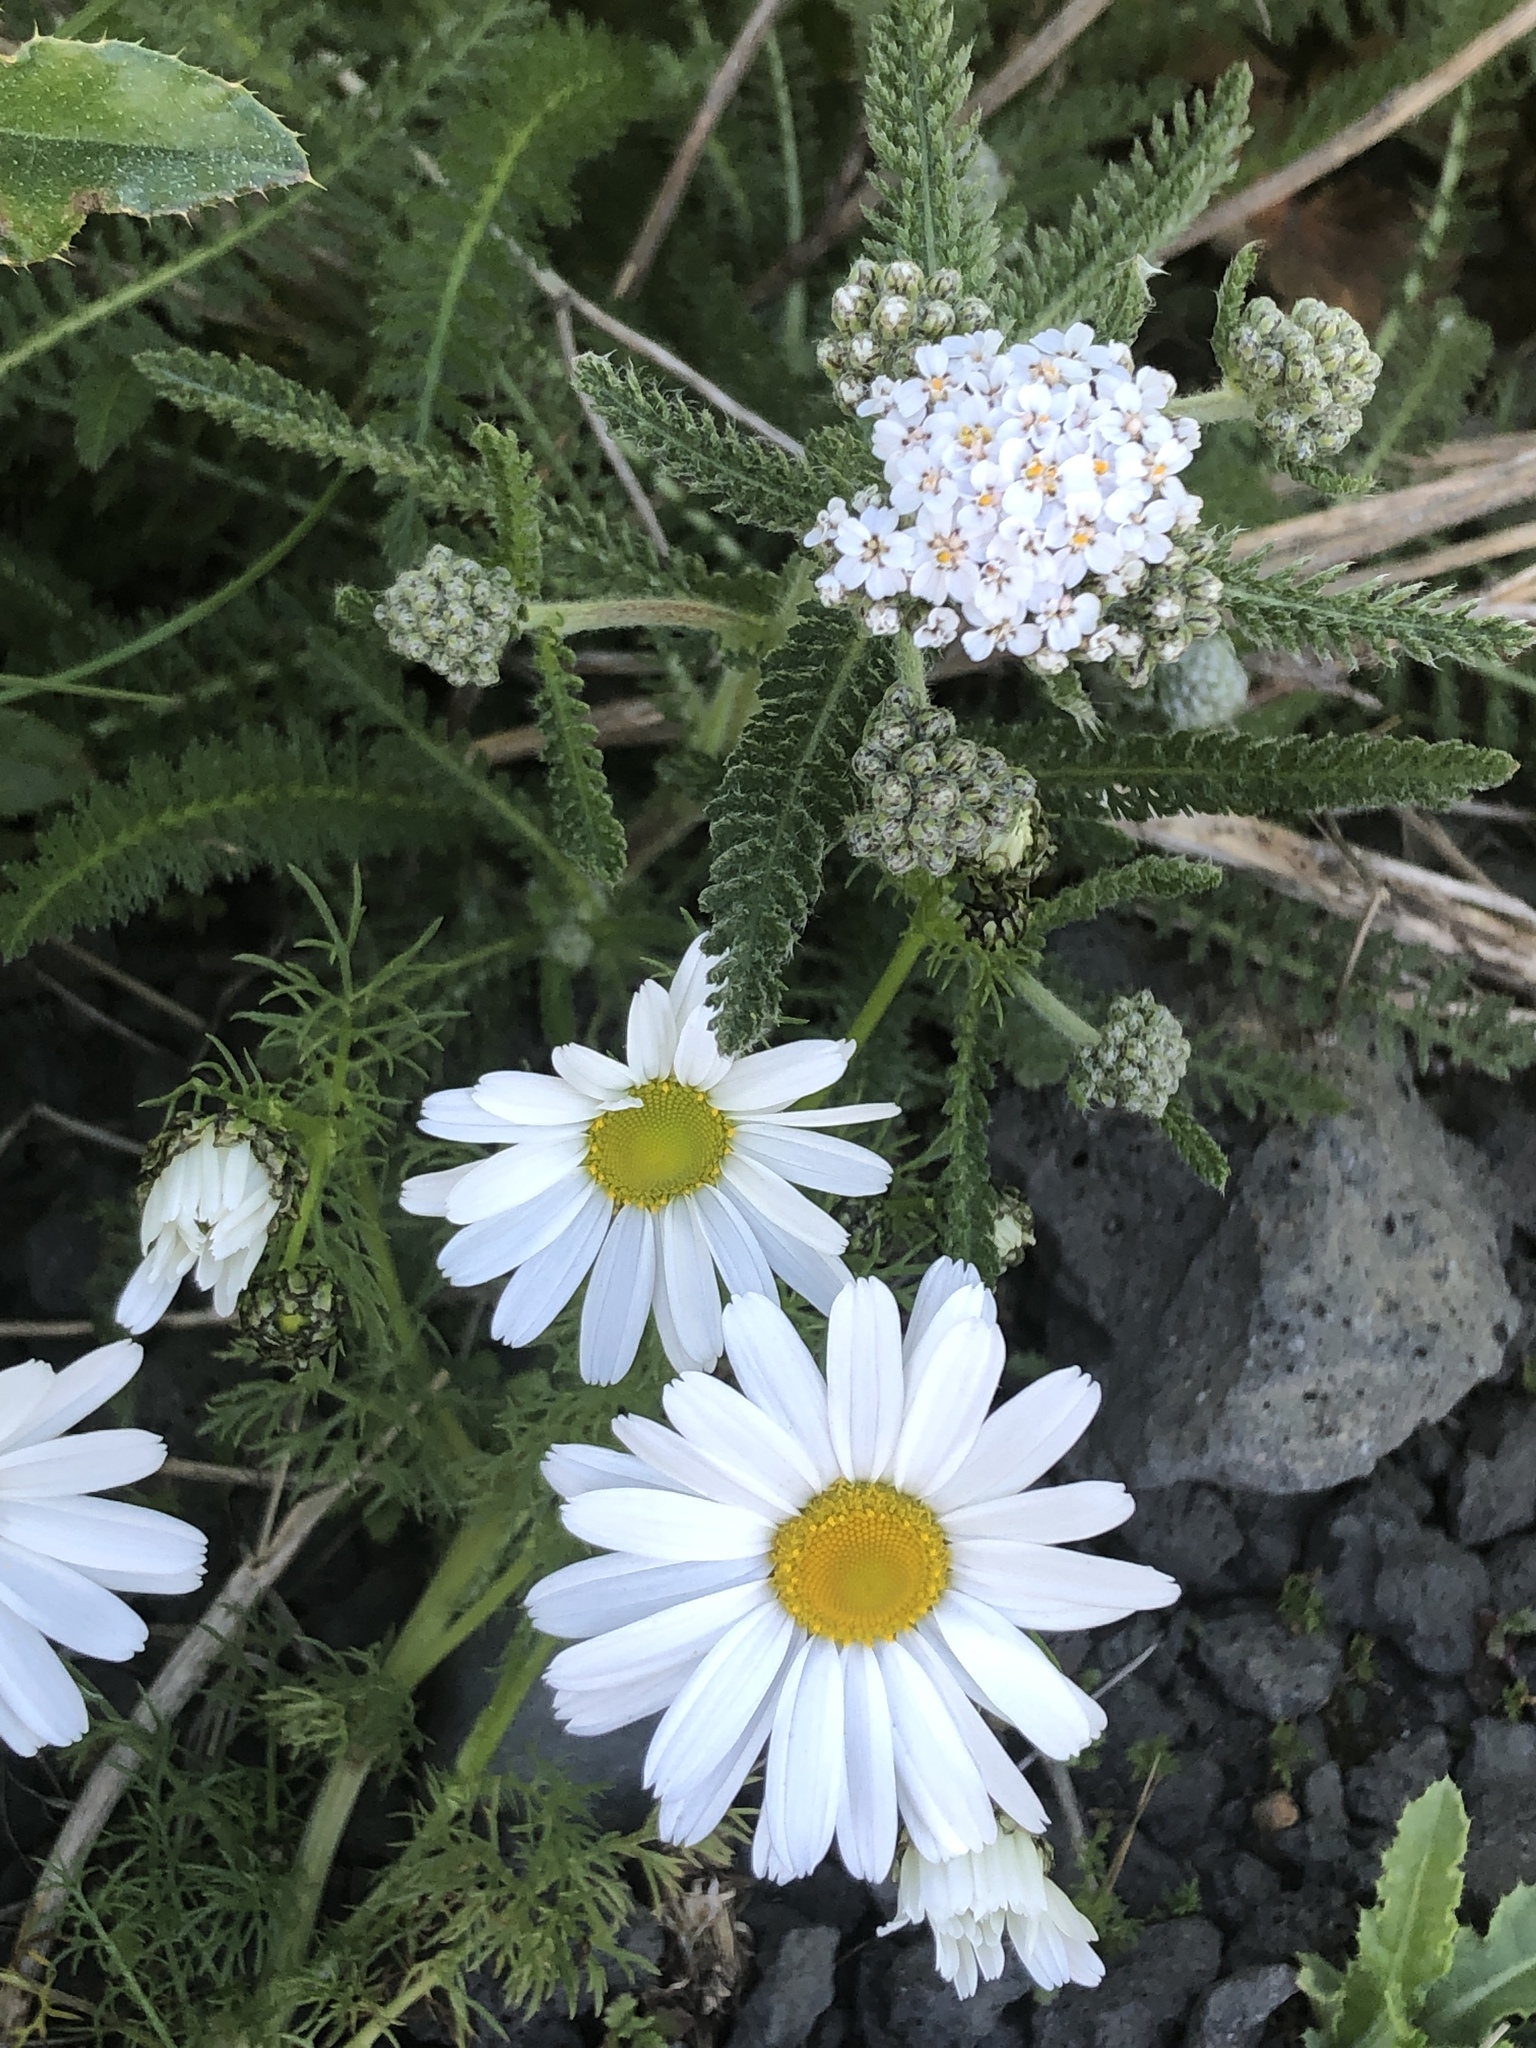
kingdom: Plantae
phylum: Tracheophyta
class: Magnoliopsida
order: Asterales
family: Asteraceae
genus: Achillea
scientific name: Achillea millefolium
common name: Yarrow
